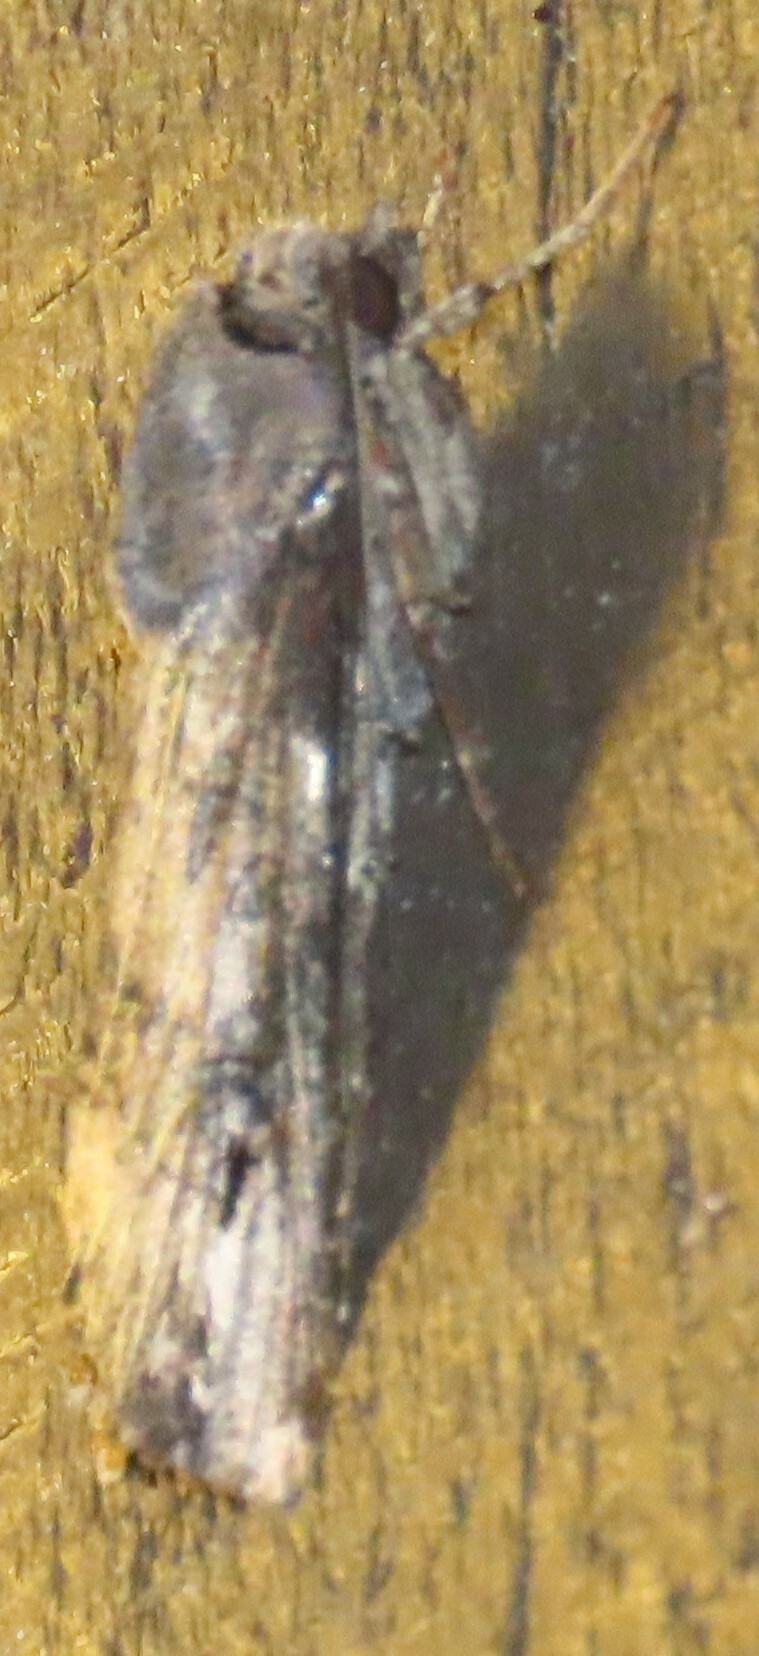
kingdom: Animalia
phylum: Arthropoda
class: Insecta
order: Lepidoptera
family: Noctuidae
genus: Agrotis
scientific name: Agrotis ipsilon
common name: Dark sword-grass
